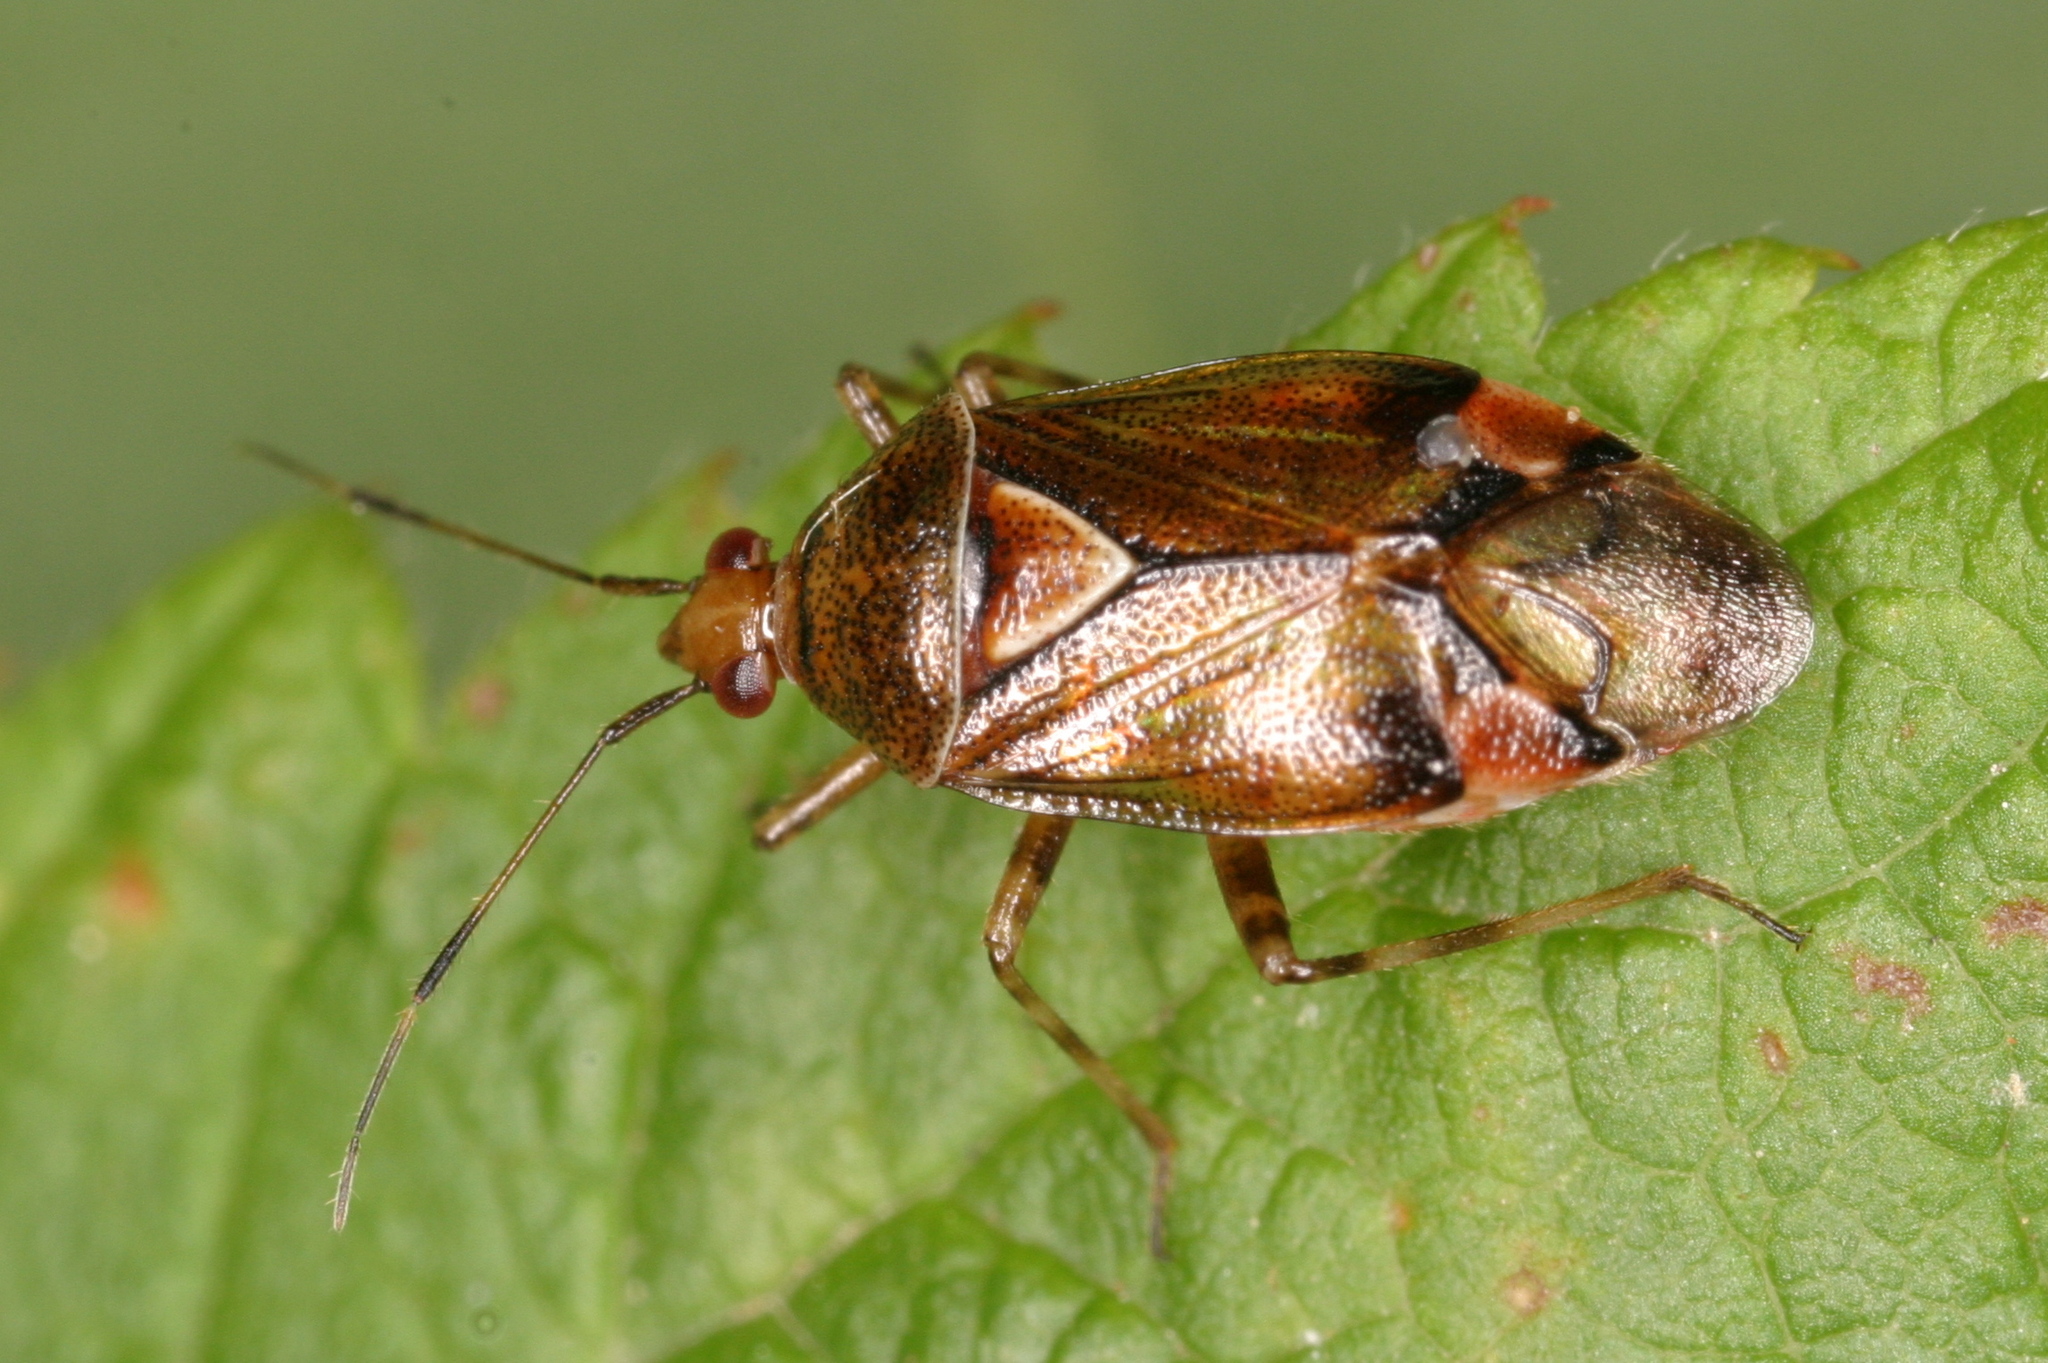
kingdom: Animalia
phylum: Arthropoda
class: Insecta
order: Hemiptera
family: Miridae
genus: Deraeocoris
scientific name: Deraeocoris flavilinea
